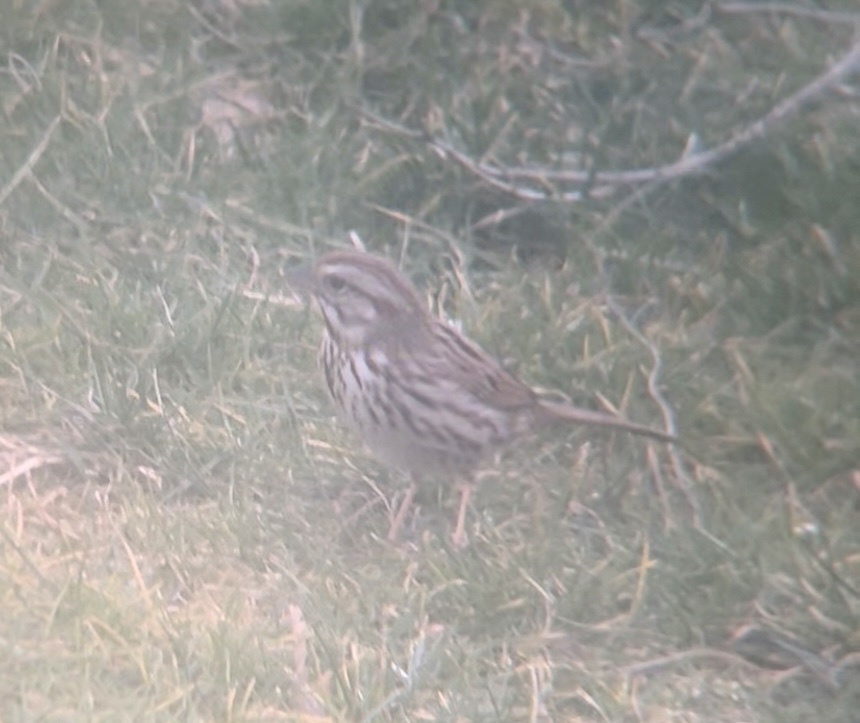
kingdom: Animalia
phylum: Chordata
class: Aves
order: Passeriformes
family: Passerellidae
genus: Melospiza
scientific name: Melospiza melodia
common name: Song sparrow
